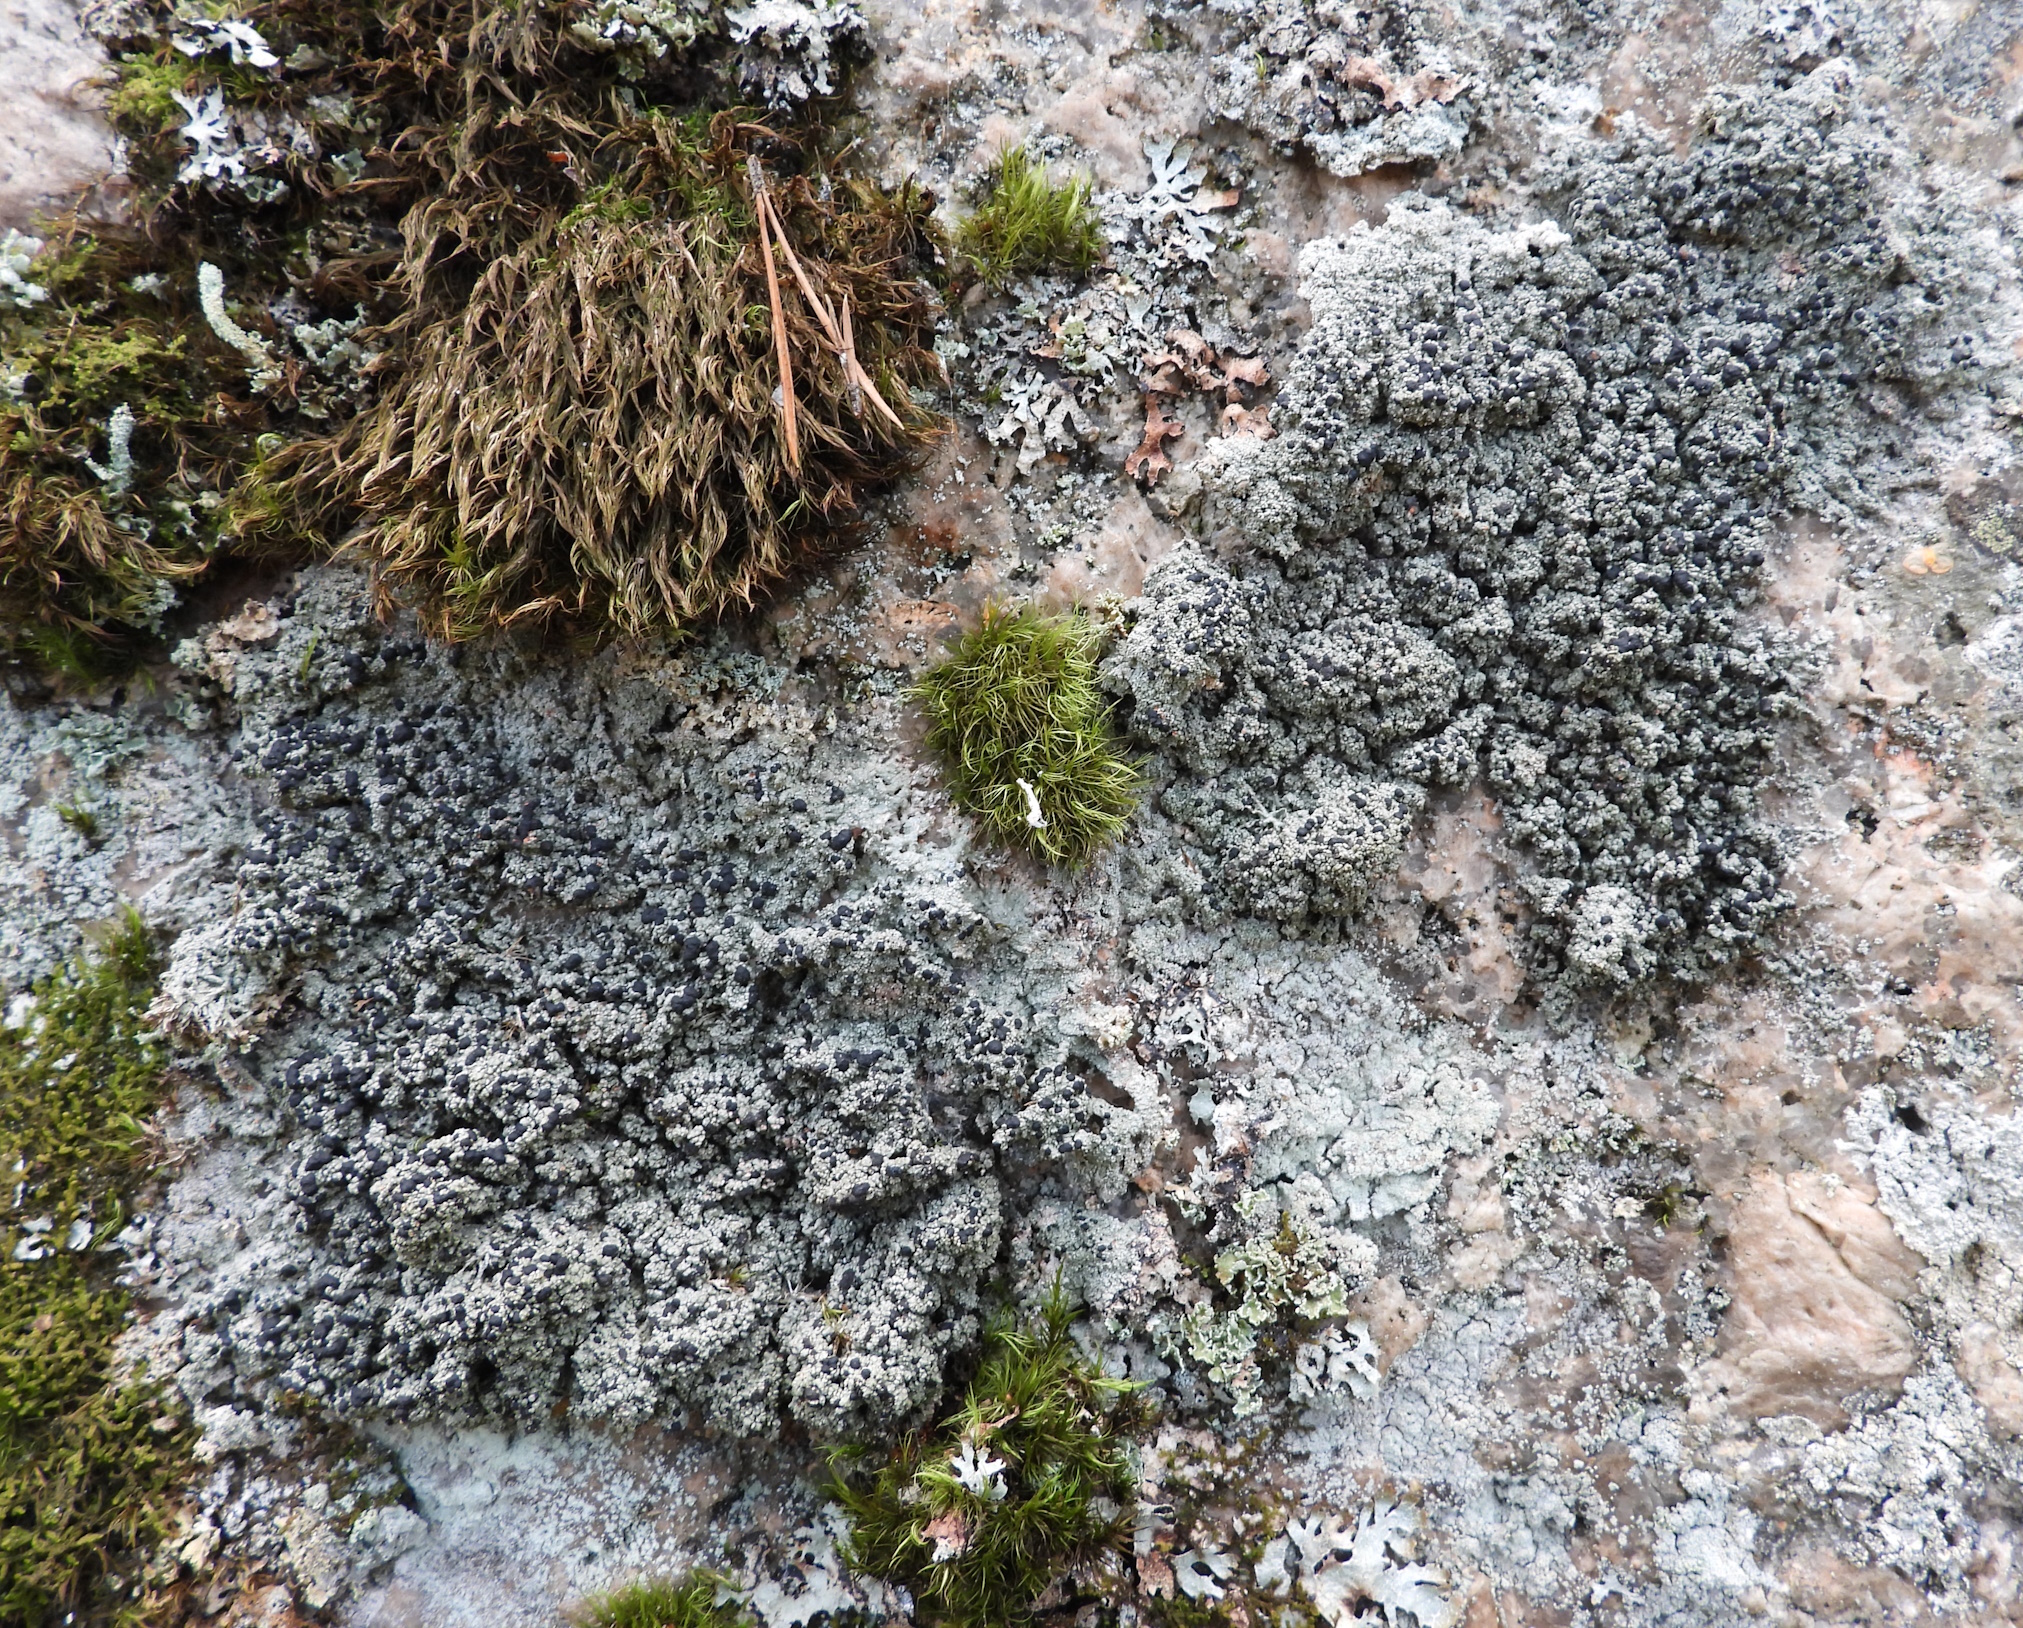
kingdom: Fungi
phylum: Ascomycota
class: Lecanoromycetes
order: Lecanorales
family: Tephromelataceae
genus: Mycoblastus
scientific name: Mycoblastus sanguinarius
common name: Bloody-heart lichen
